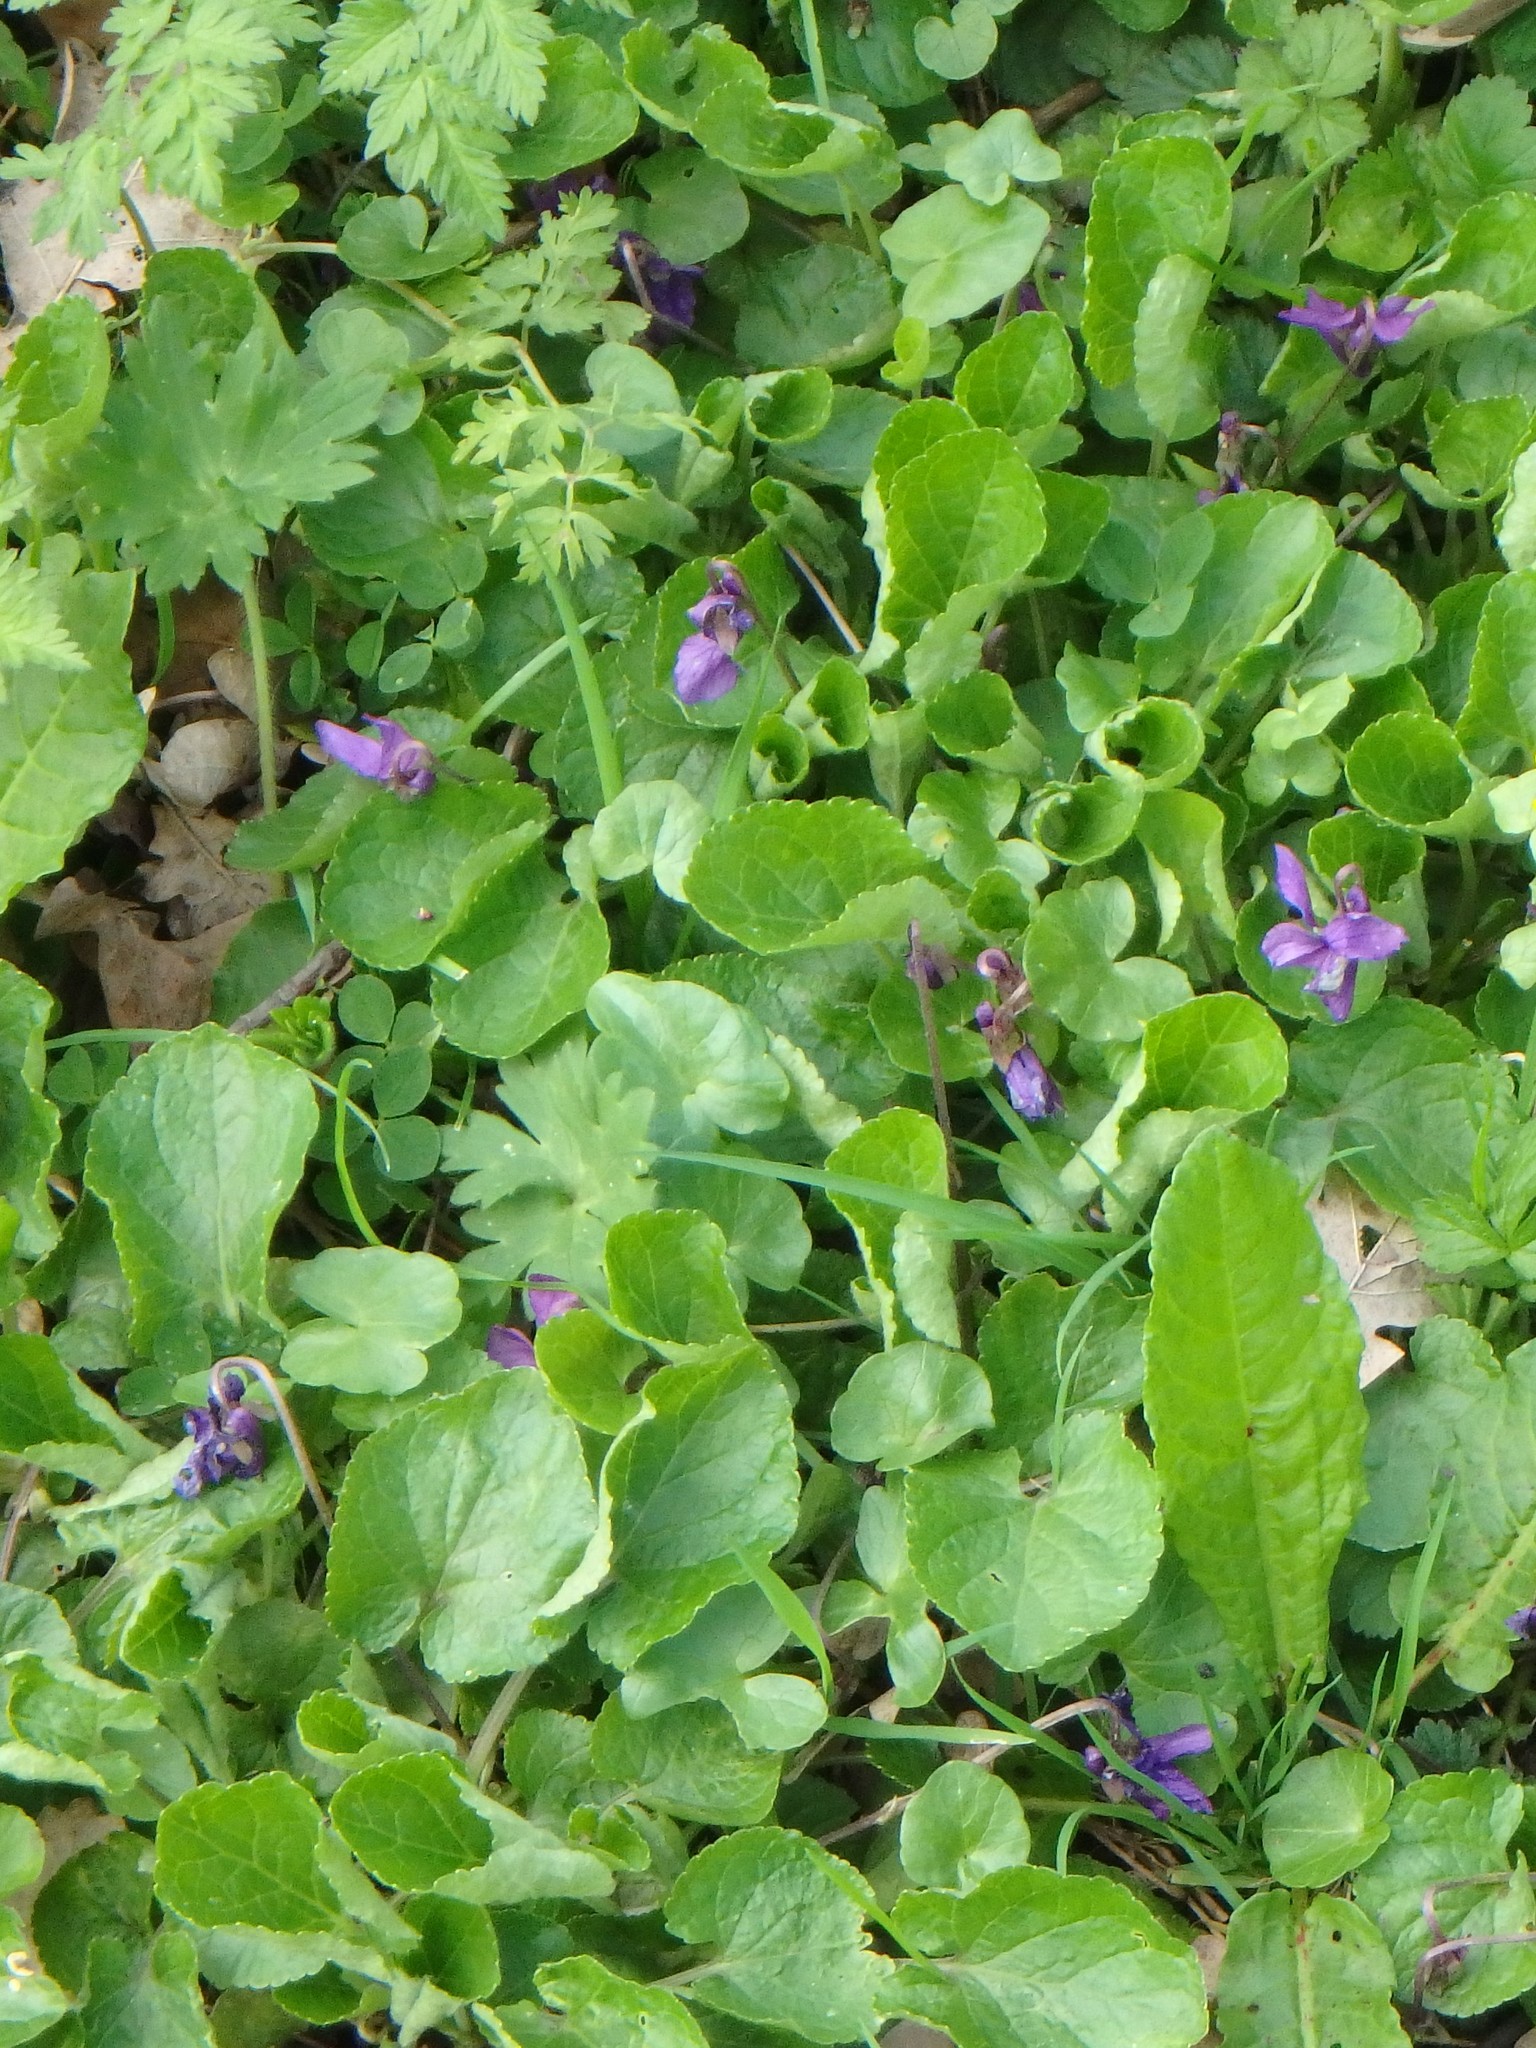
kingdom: Plantae
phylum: Tracheophyta
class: Magnoliopsida
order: Malpighiales
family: Violaceae
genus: Viola
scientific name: Viola odorata
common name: Sweet violet
